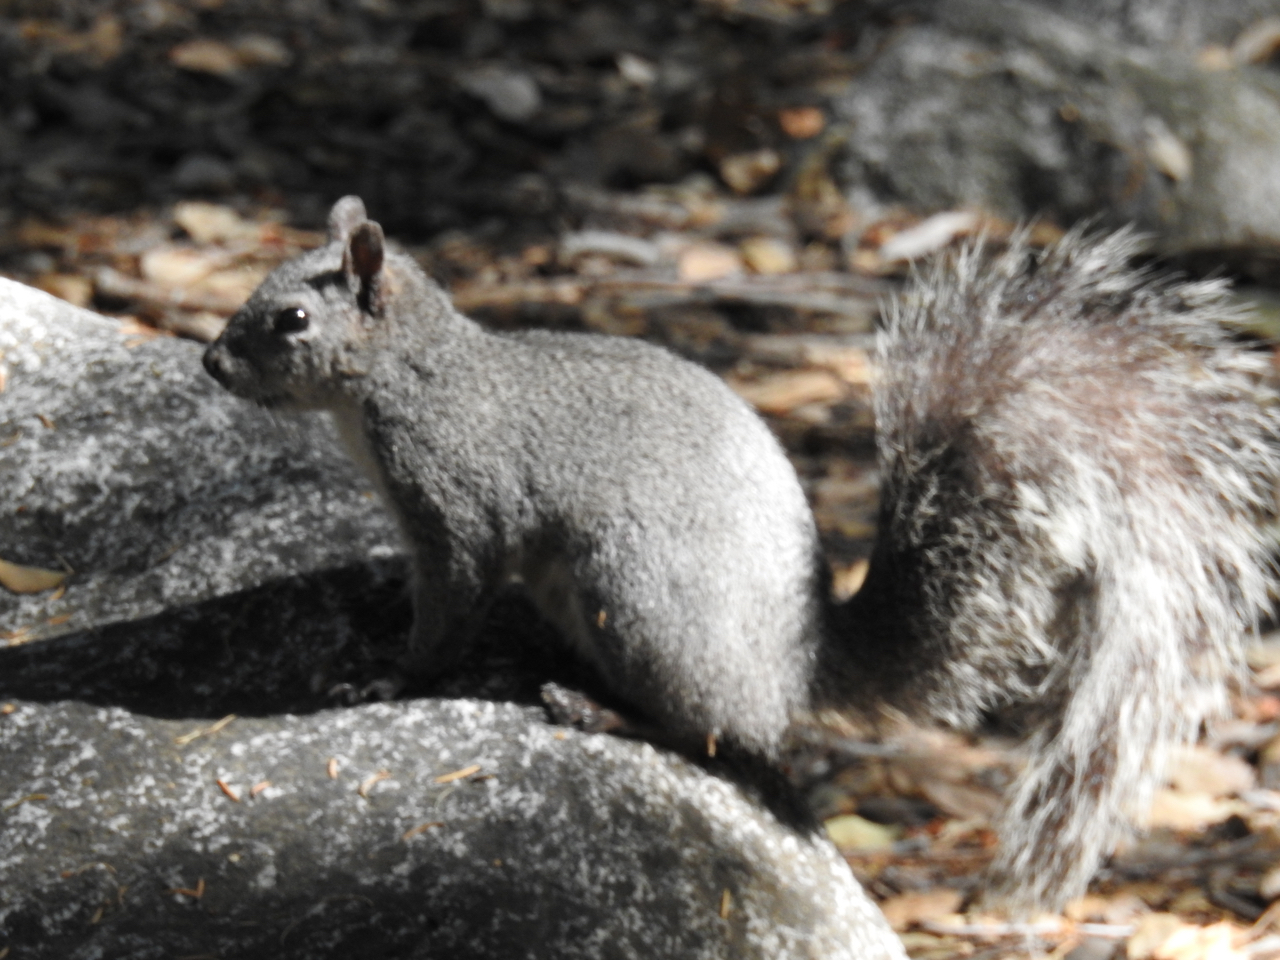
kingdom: Animalia
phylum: Chordata
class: Mammalia
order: Rodentia
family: Sciuridae
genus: Sciurus
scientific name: Sciurus griseus
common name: Western gray squirrel
